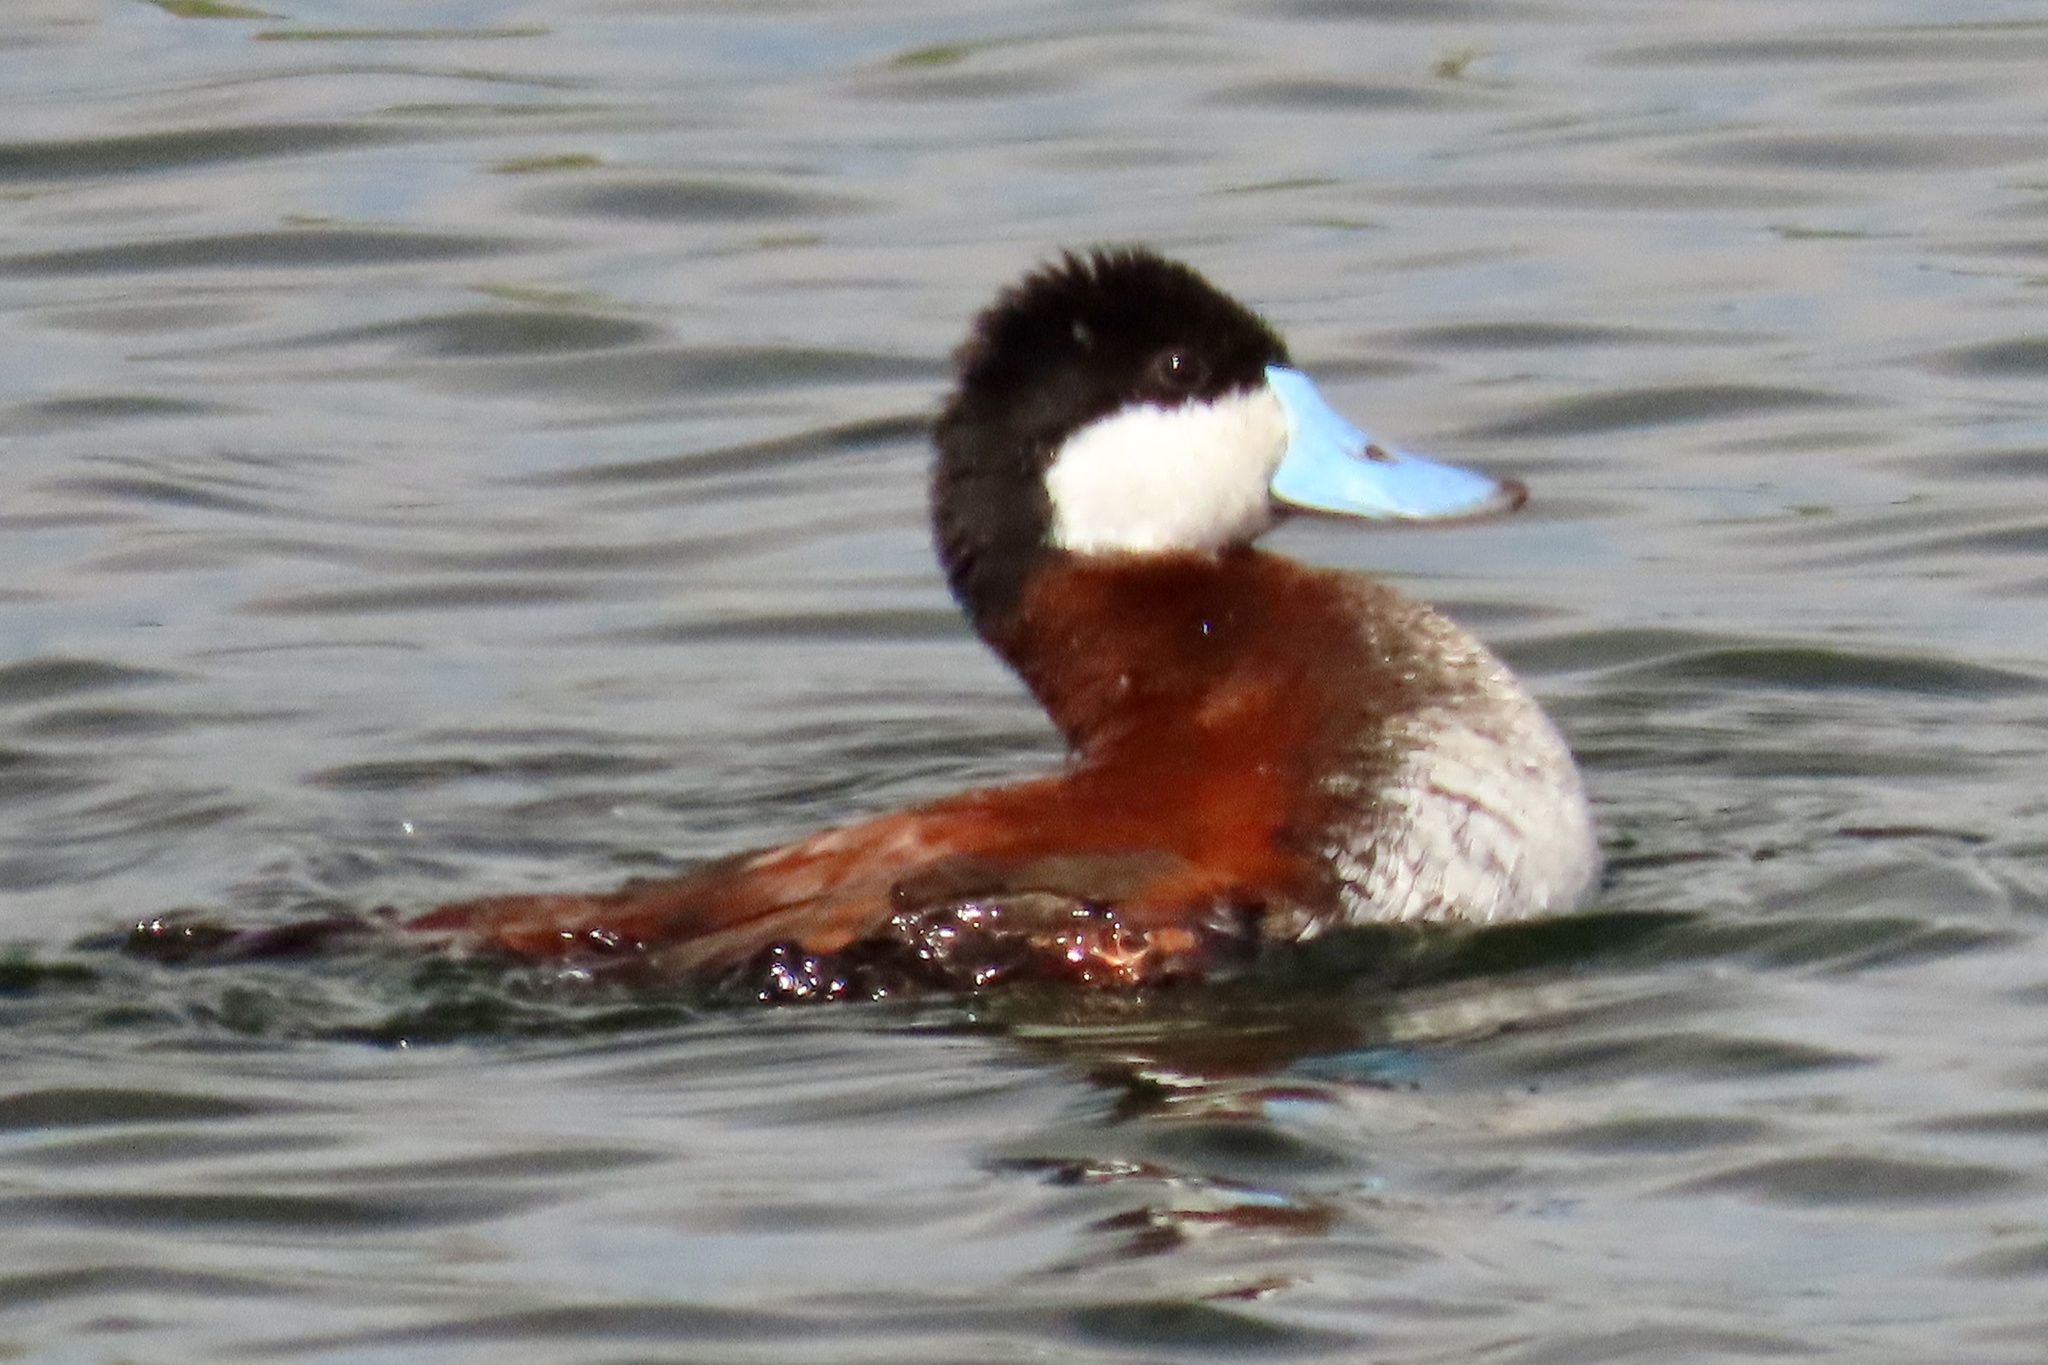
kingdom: Animalia
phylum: Chordata
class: Aves
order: Anseriformes
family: Anatidae
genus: Oxyura
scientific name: Oxyura jamaicensis
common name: Ruddy duck
